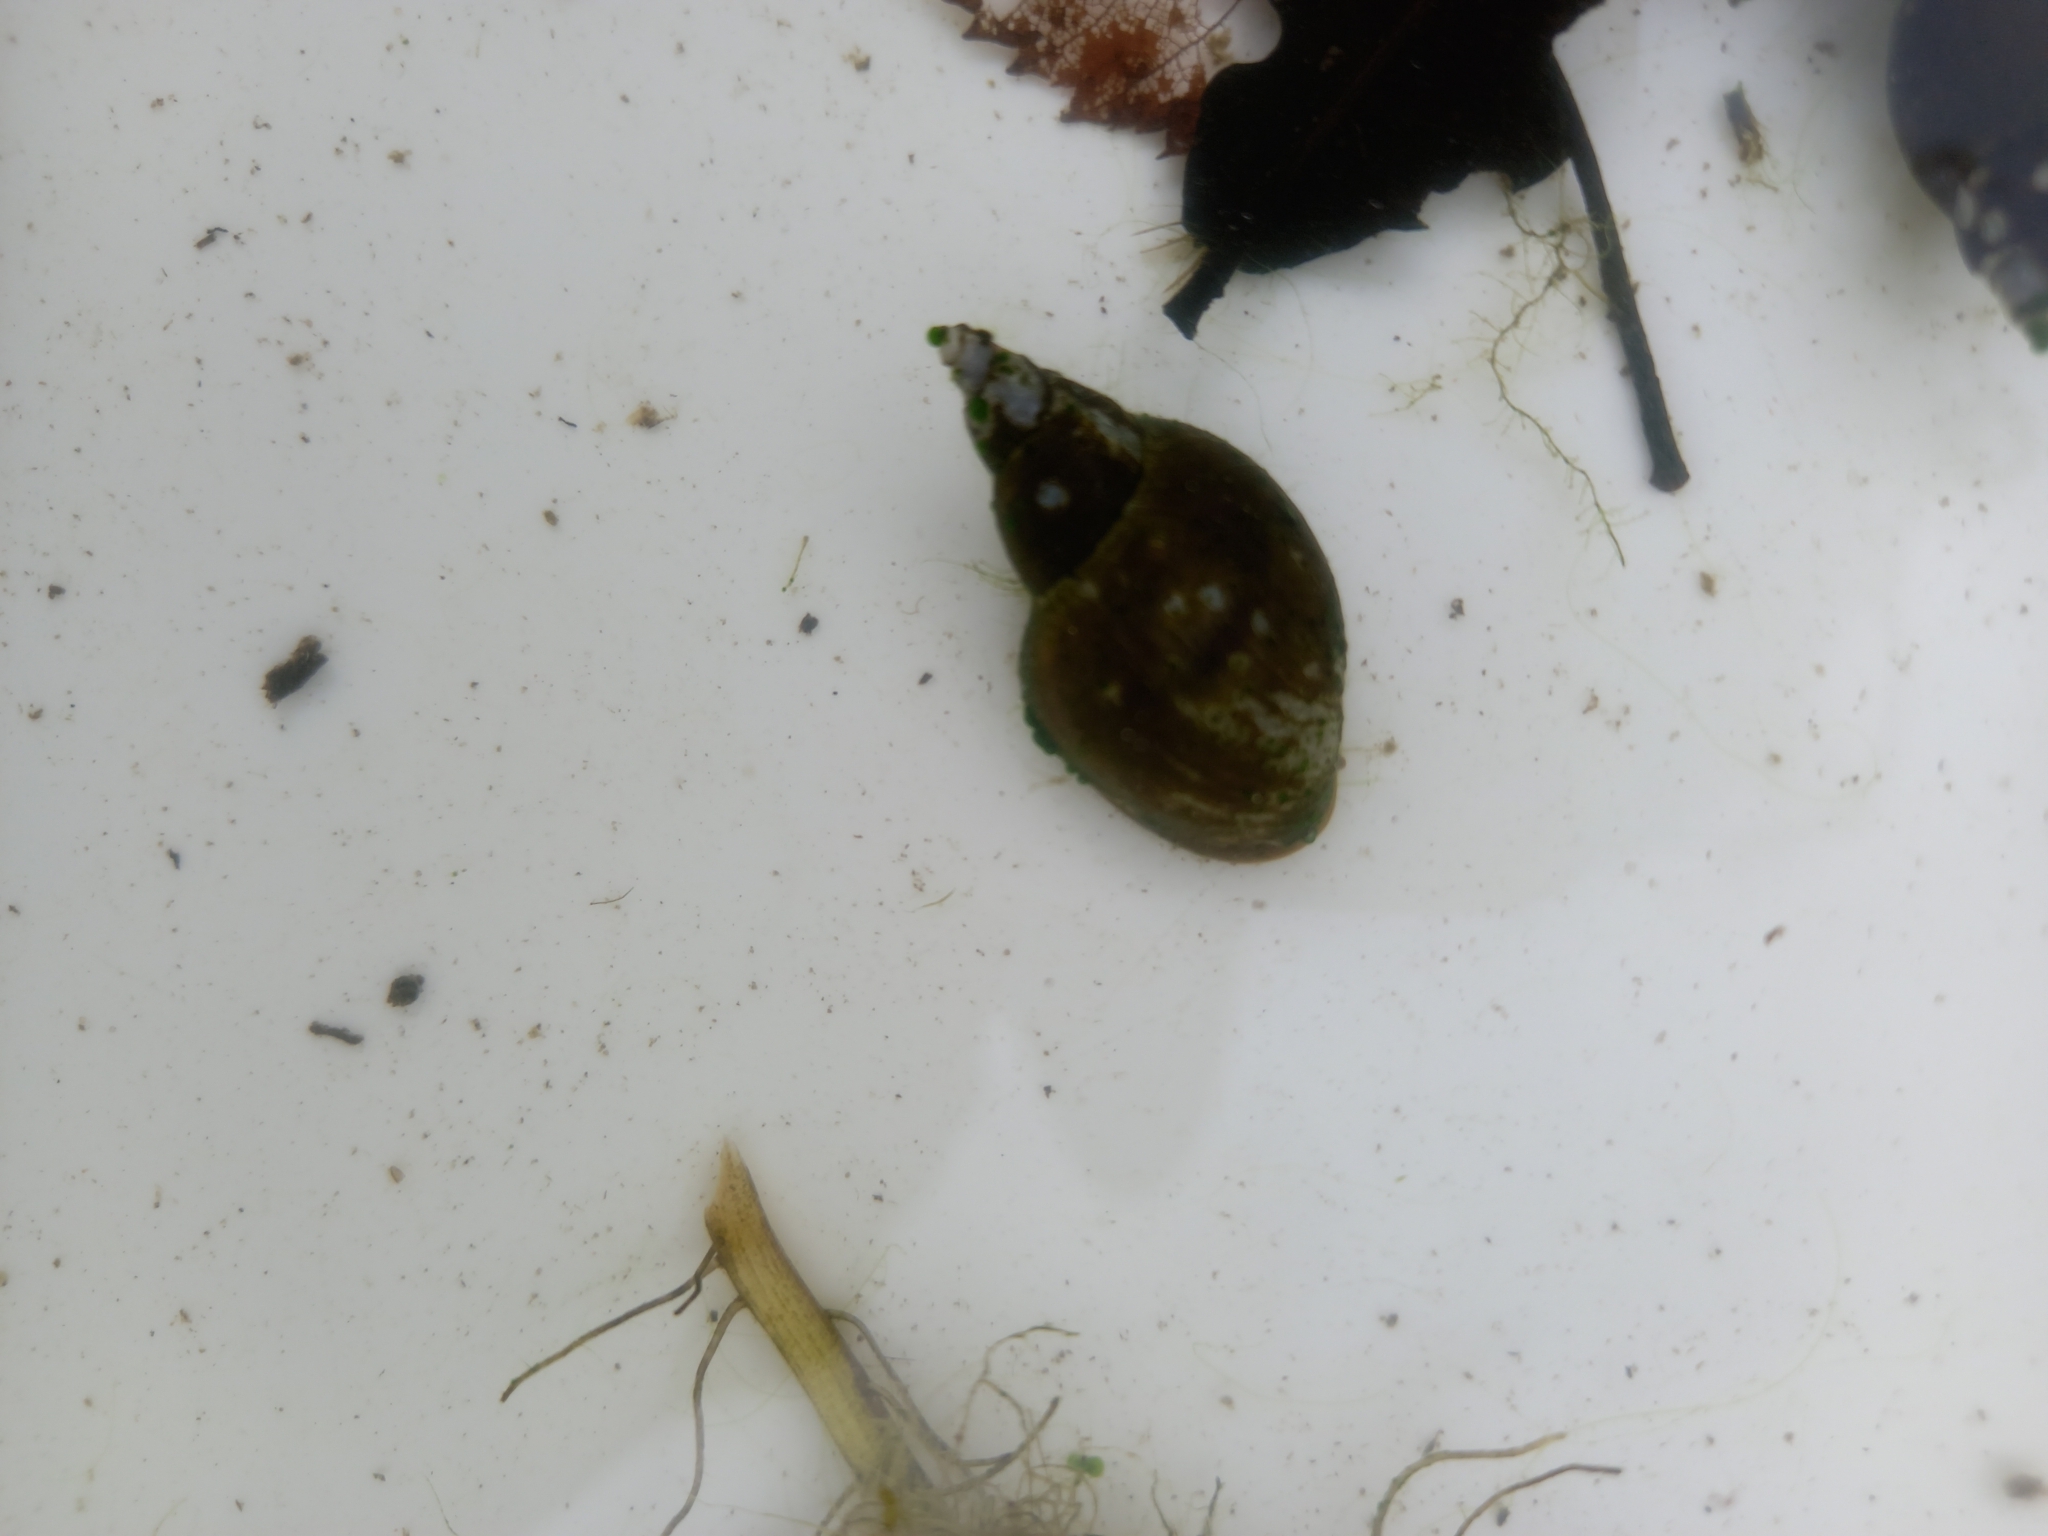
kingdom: Animalia
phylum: Mollusca
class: Gastropoda
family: Lymnaeidae
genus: Lymnaea
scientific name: Lymnaea stagnalis
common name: Great pond snail
